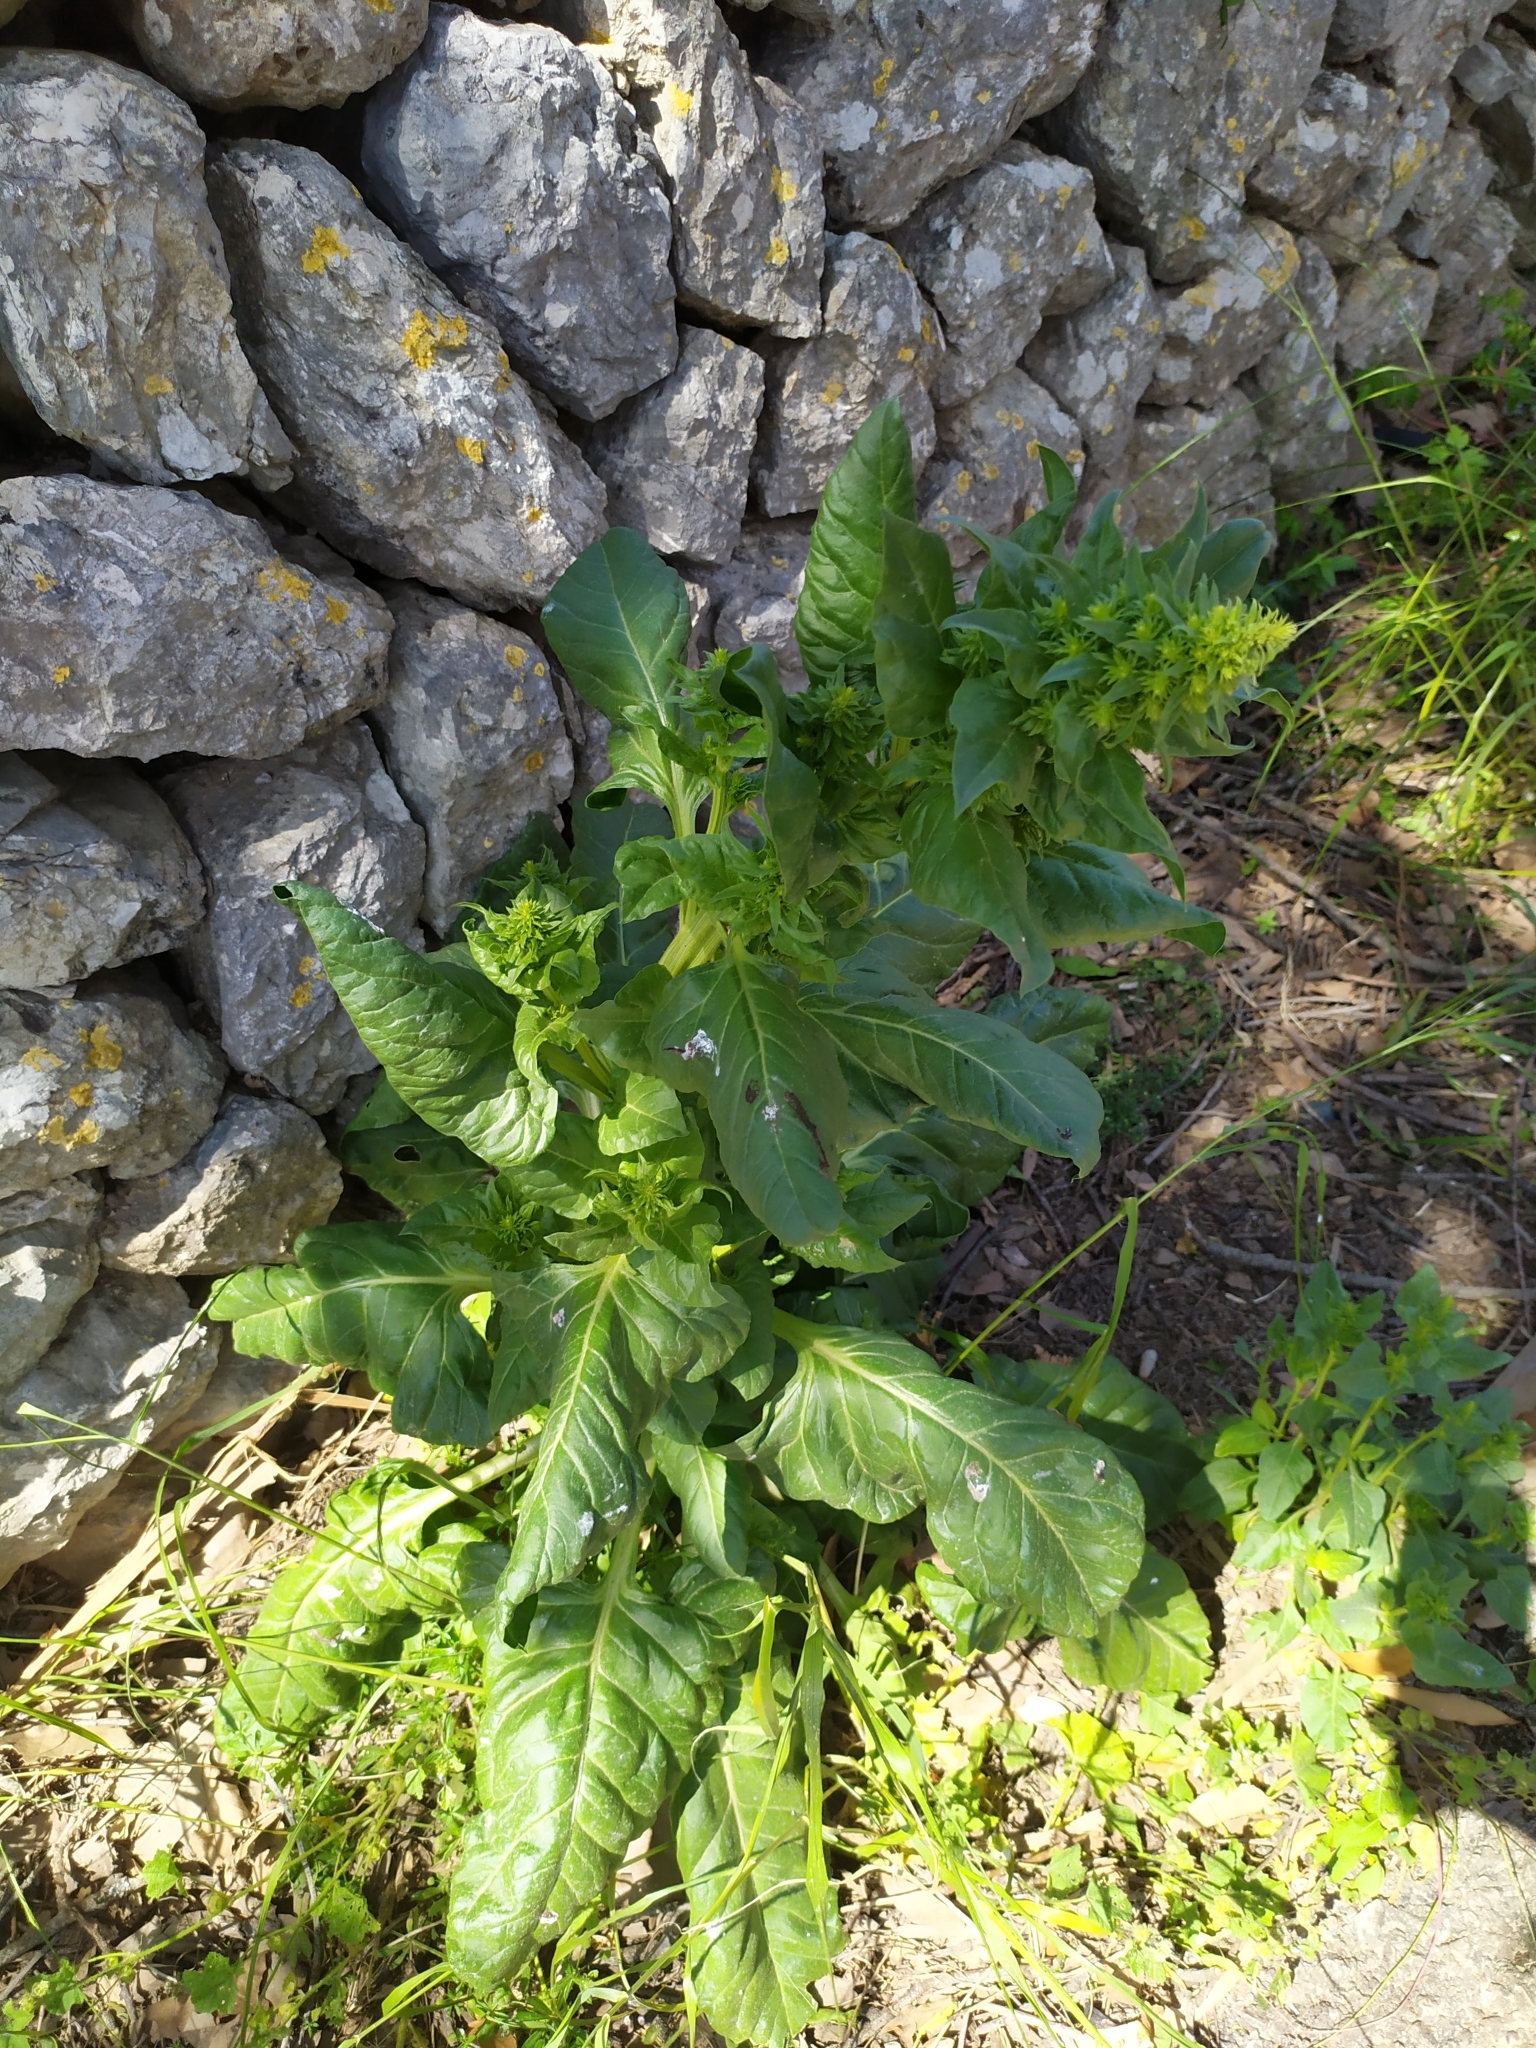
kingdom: Plantae
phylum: Tracheophyta
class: Magnoliopsida
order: Caryophyllales
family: Amaranthaceae
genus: Beta
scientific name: Beta vulgaris
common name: Beet
